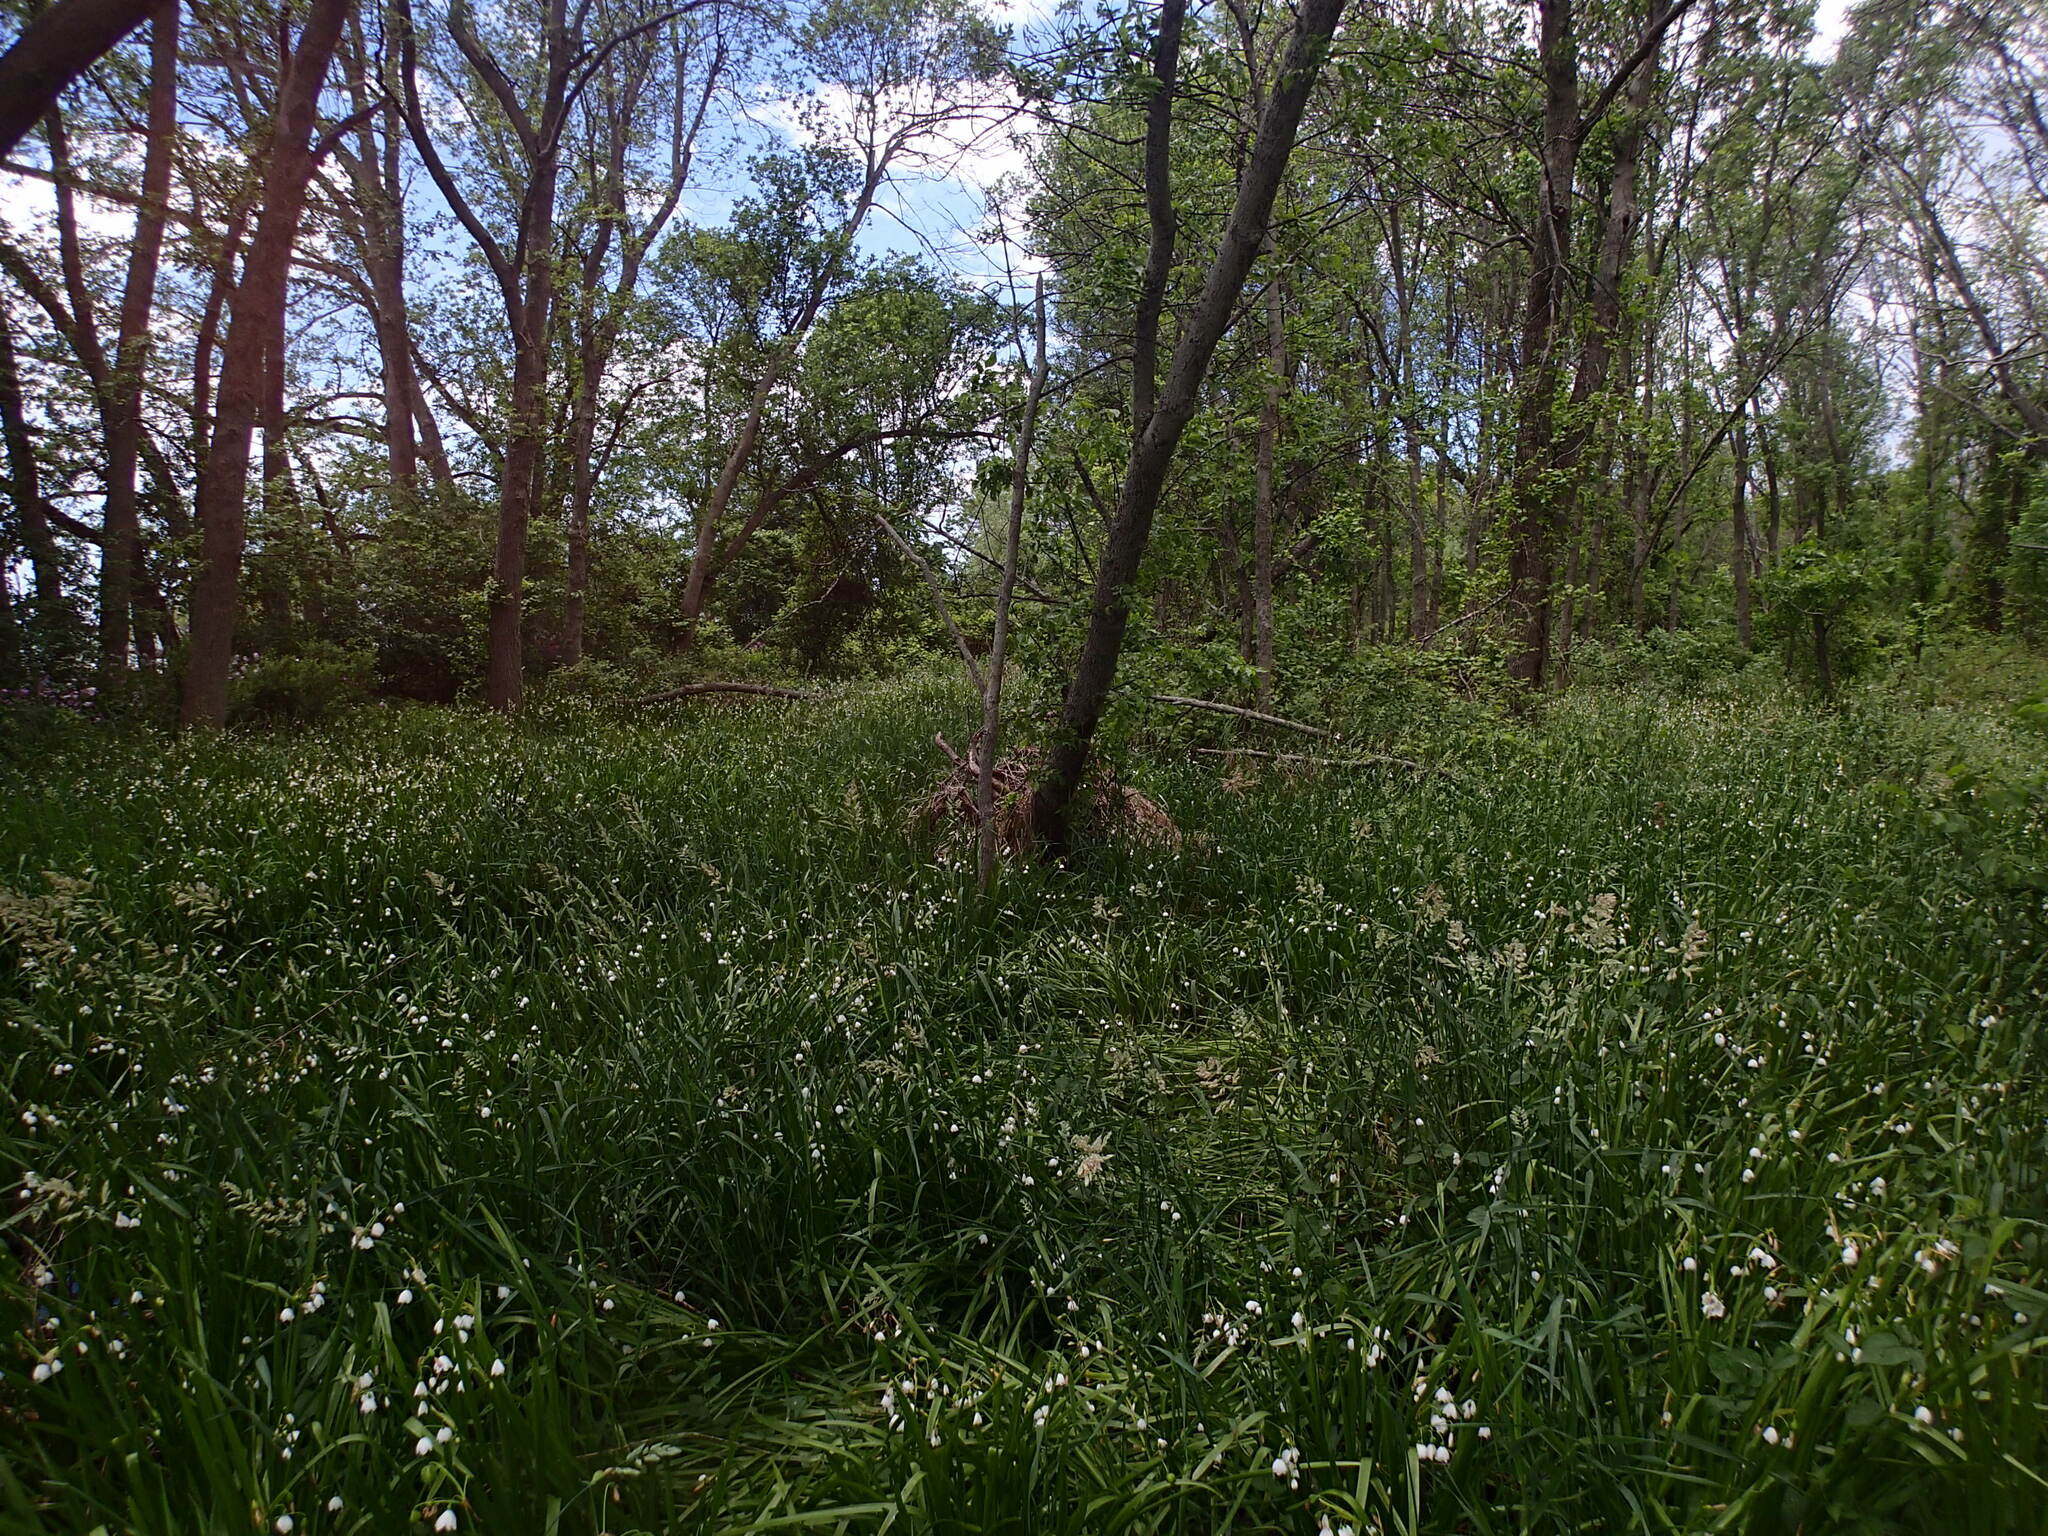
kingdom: Plantae
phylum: Tracheophyta
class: Liliopsida
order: Asparagales
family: Amaryllidaceae
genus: Leucojum
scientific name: Leucojum aestivum
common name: Summer snowflake
